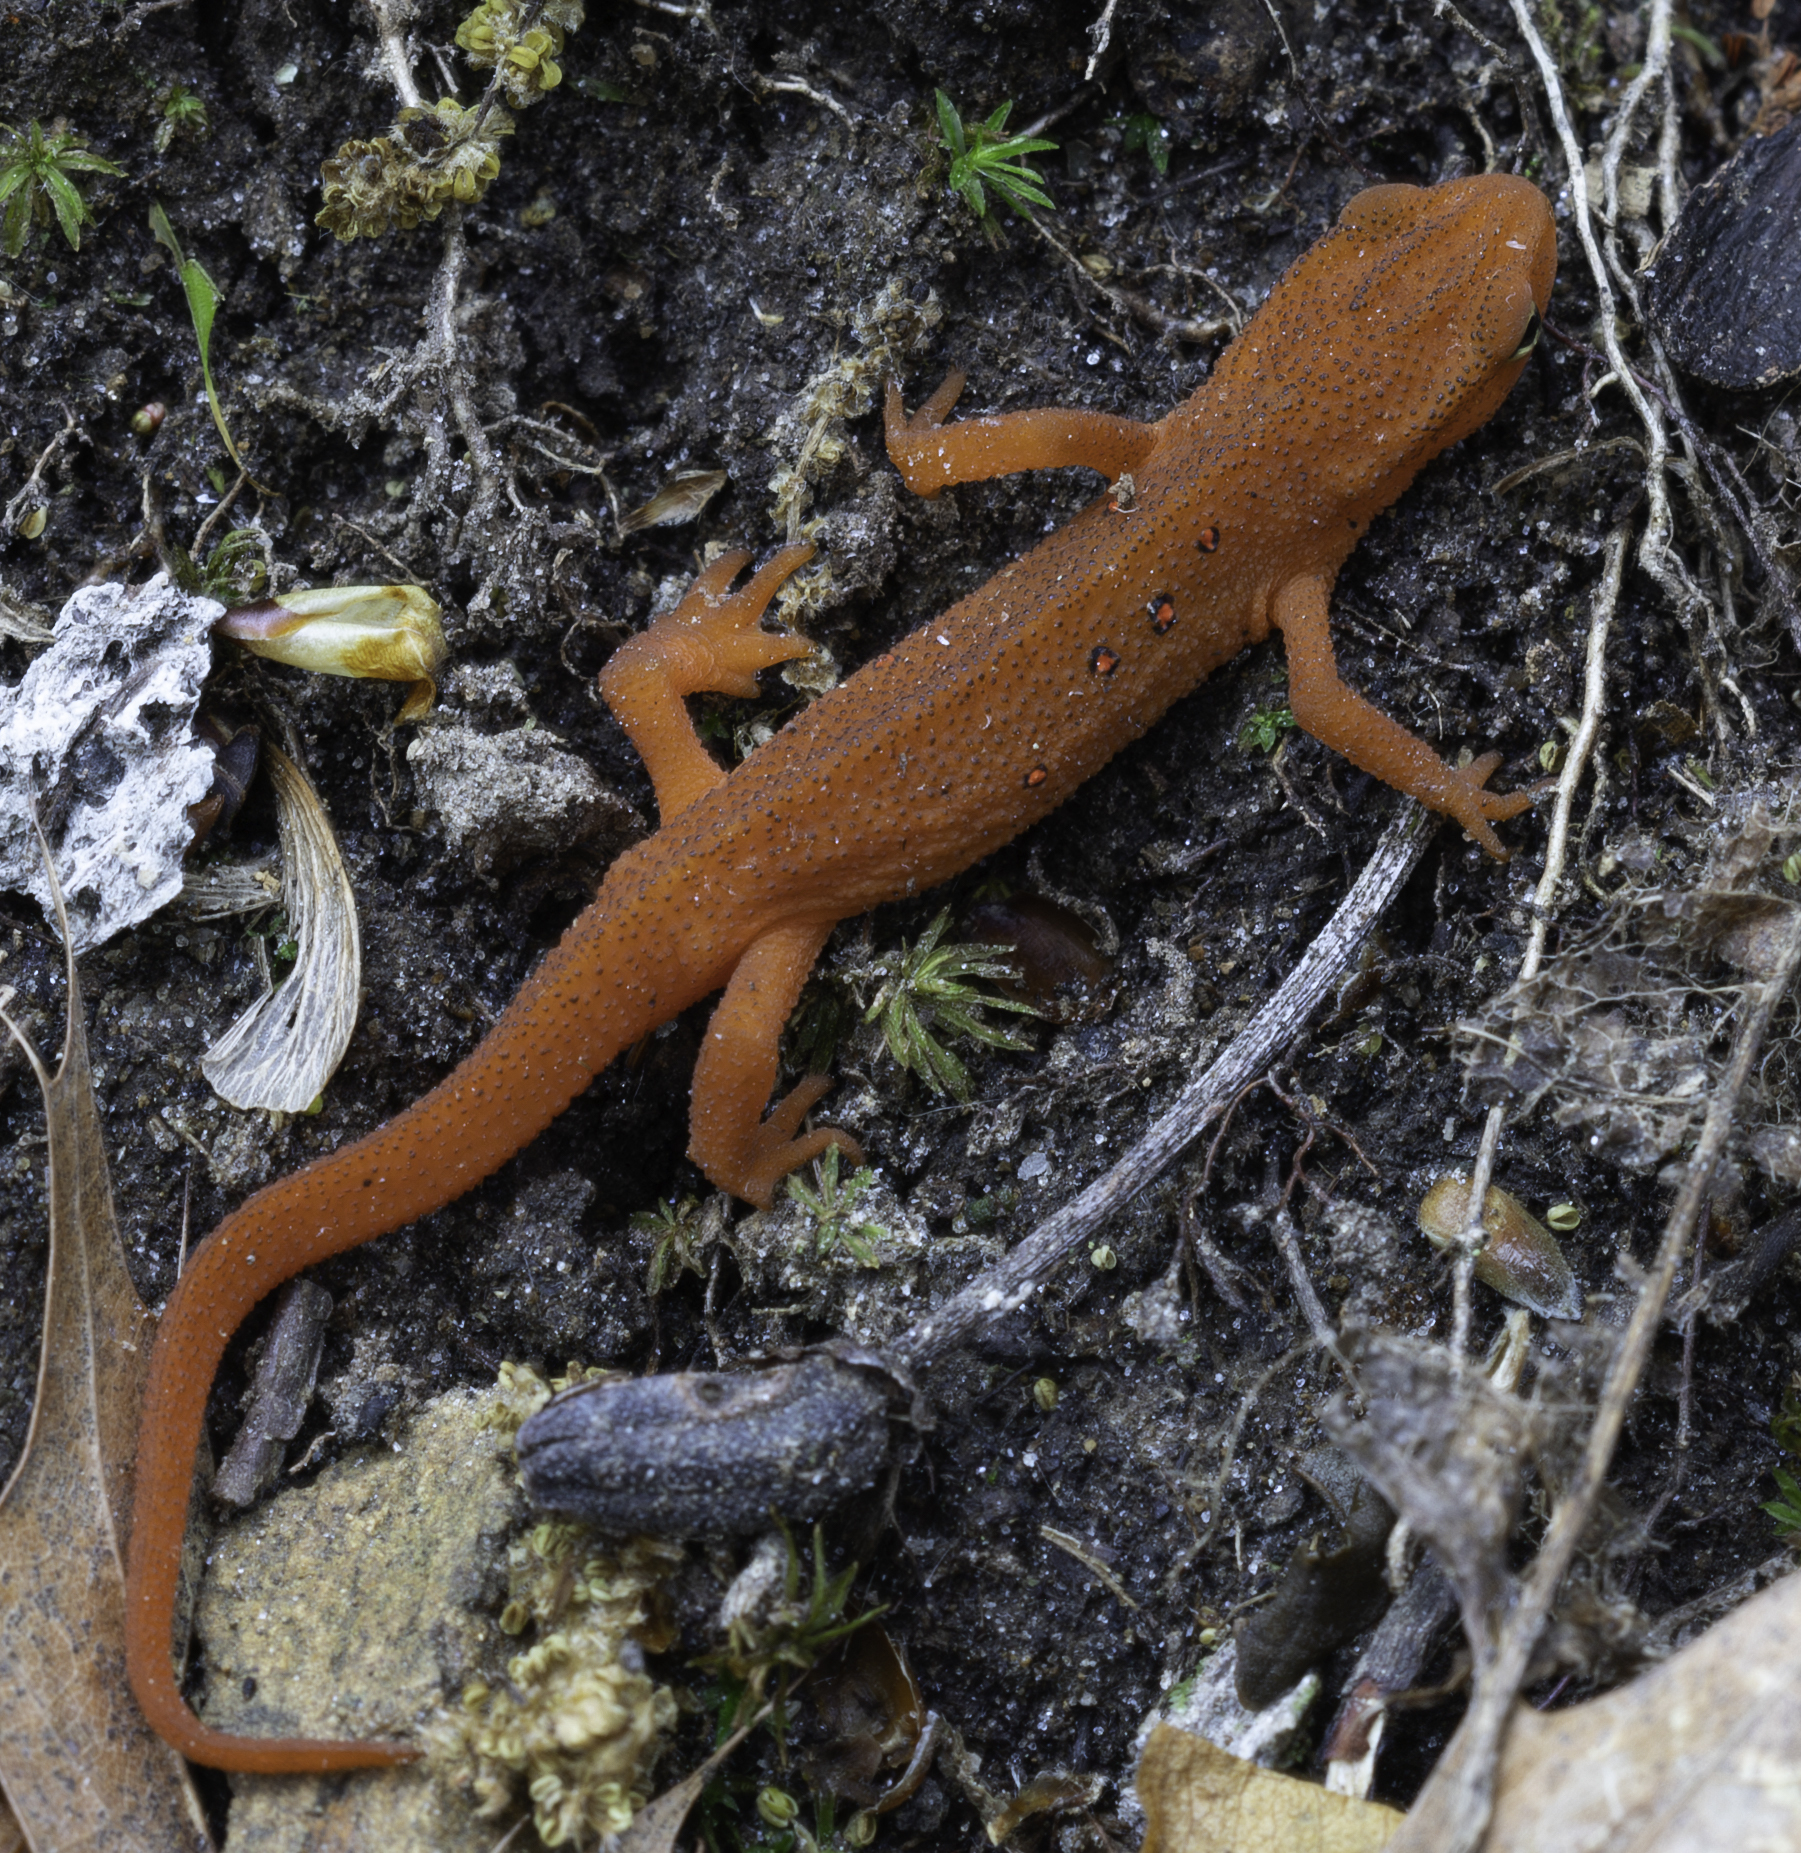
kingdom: Animalia
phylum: Chordata
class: Amphibia
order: Caudata
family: Salamandridae
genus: Notophthalmus
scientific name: Notophthalmus viridescens
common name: Eastern newt
